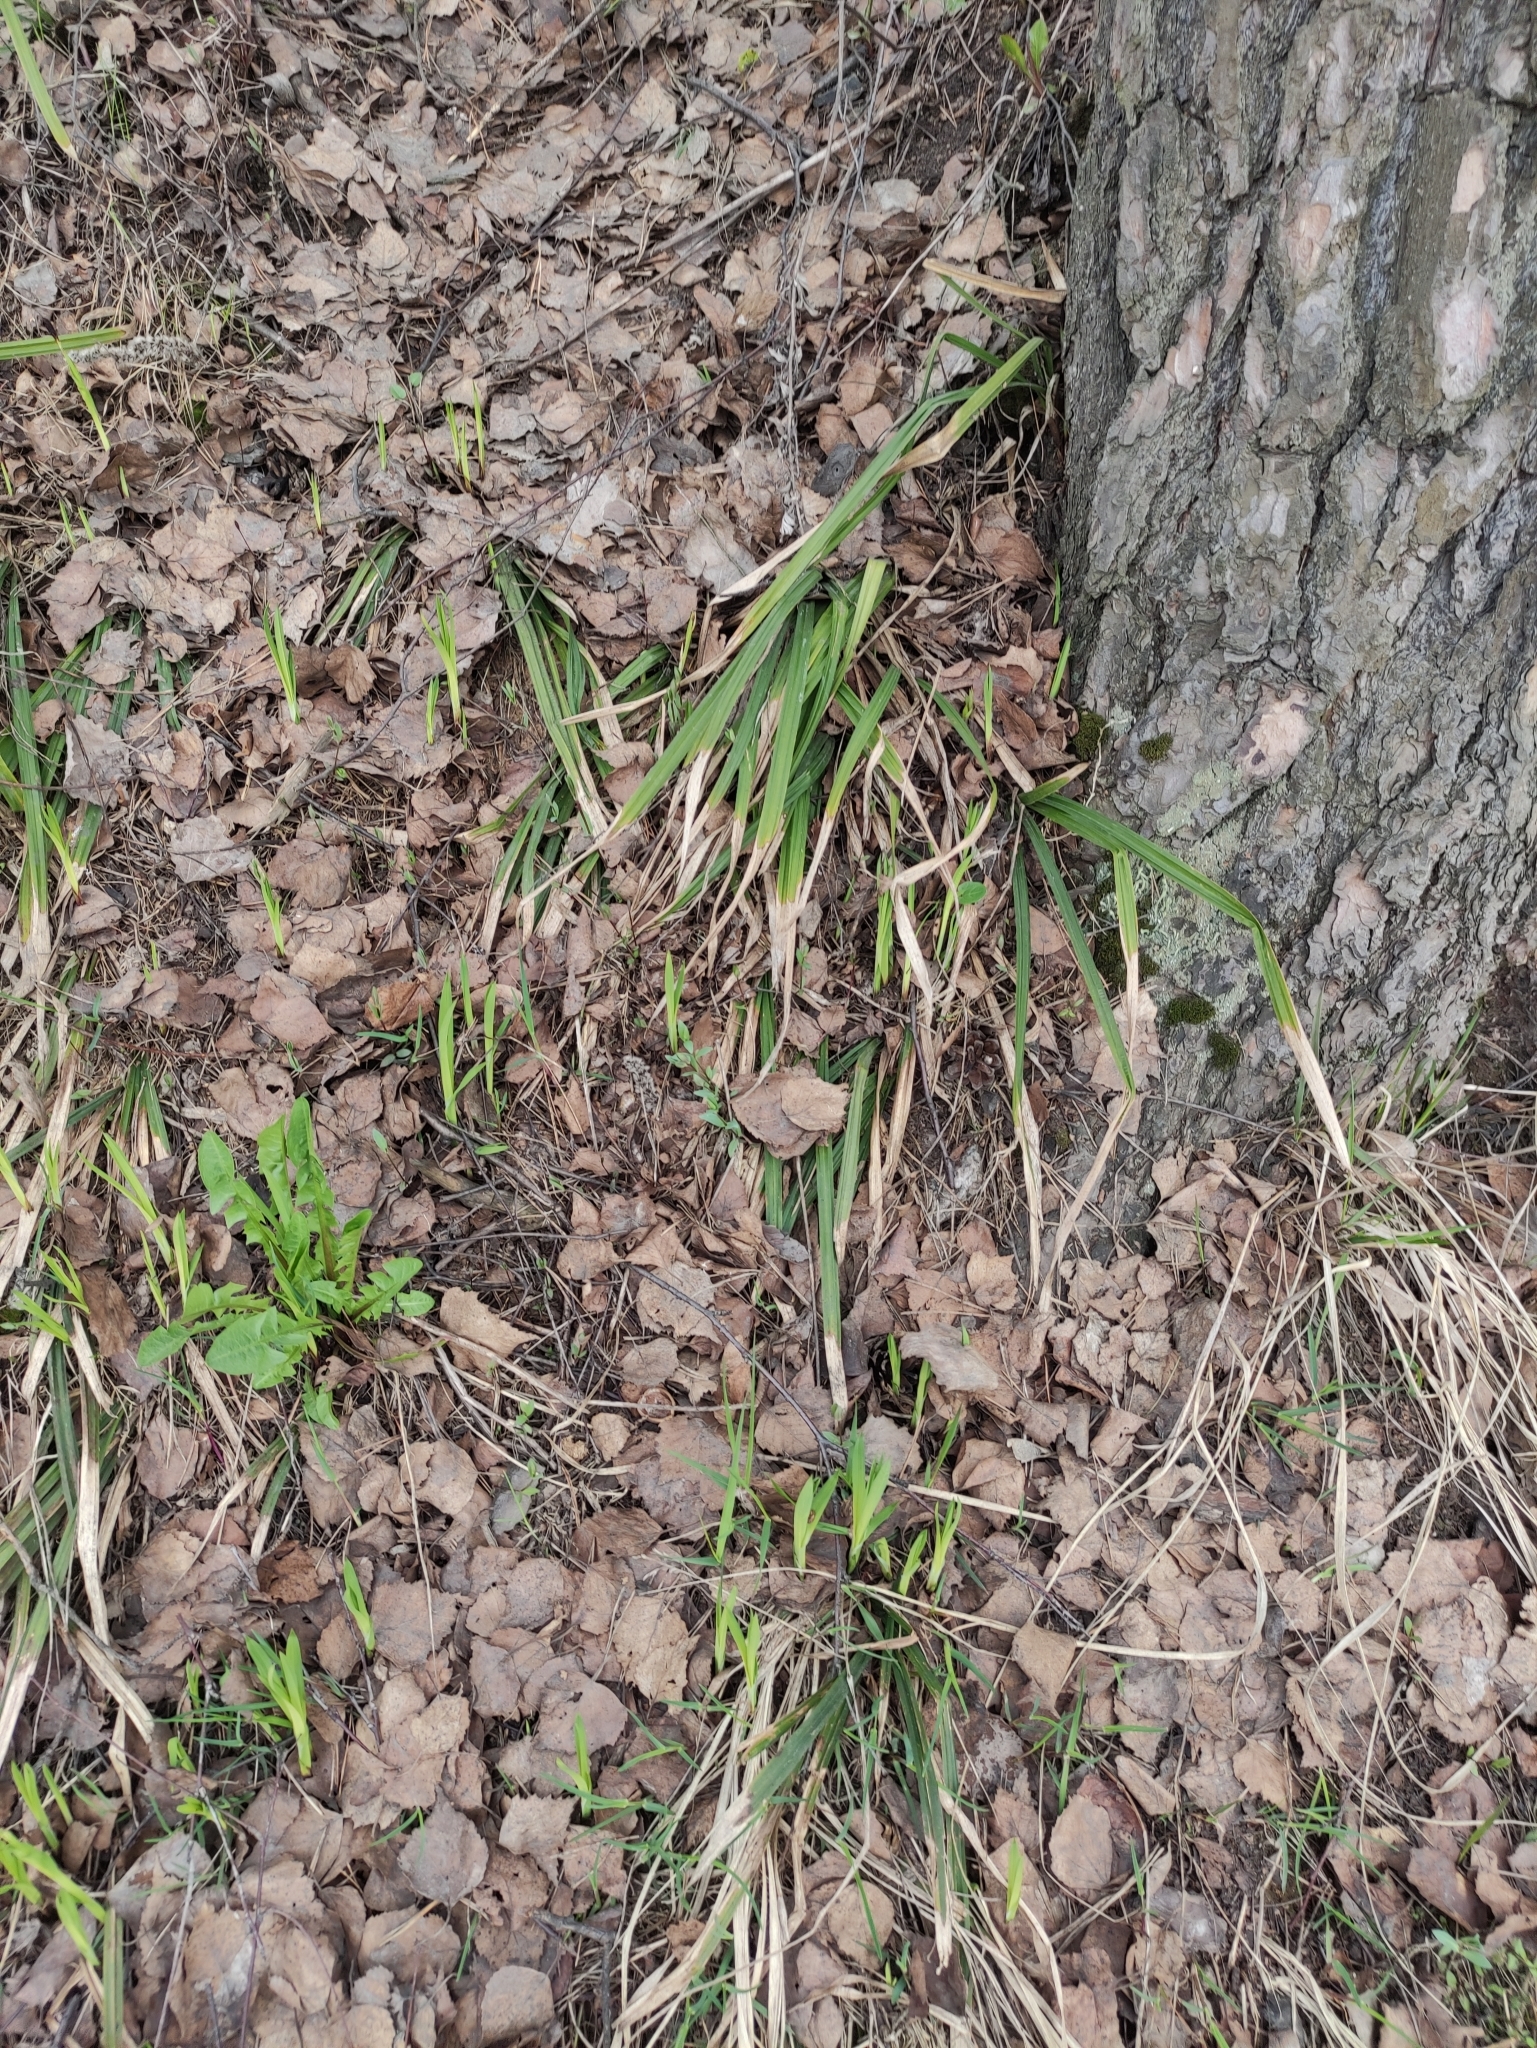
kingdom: Plantae
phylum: Tracheophyta
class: Liliopsida
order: Poales
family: Cyperaceae
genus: Carex
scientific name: Carex pilosa
